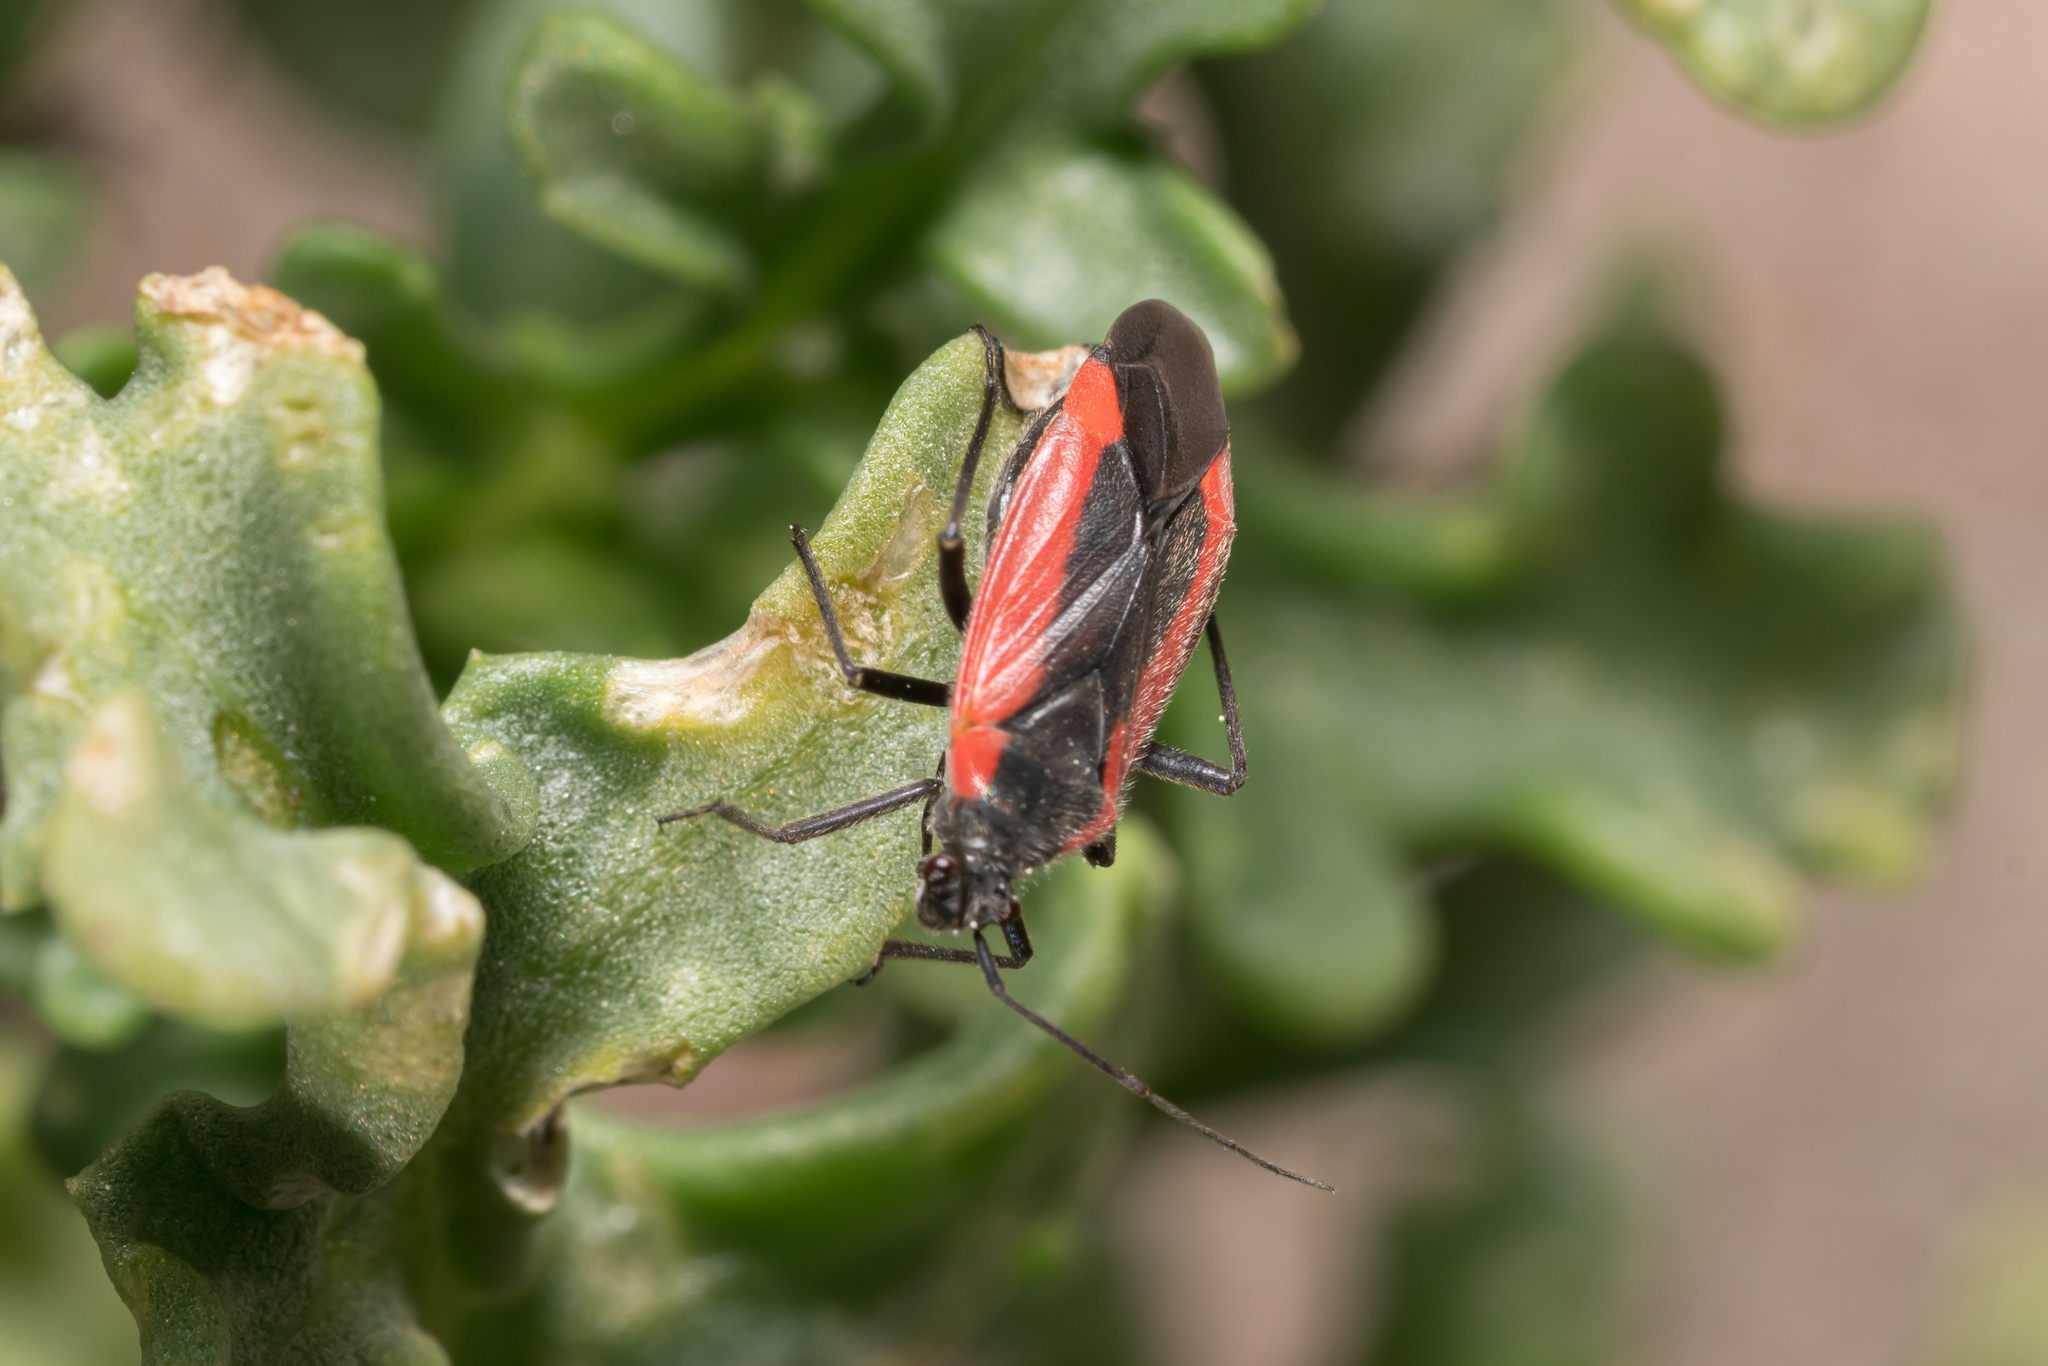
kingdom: Animalia
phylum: Arthropoda
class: Insecta
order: Hemiptera
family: Miridae
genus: Dionconotus
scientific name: Dionconotus neglectus
